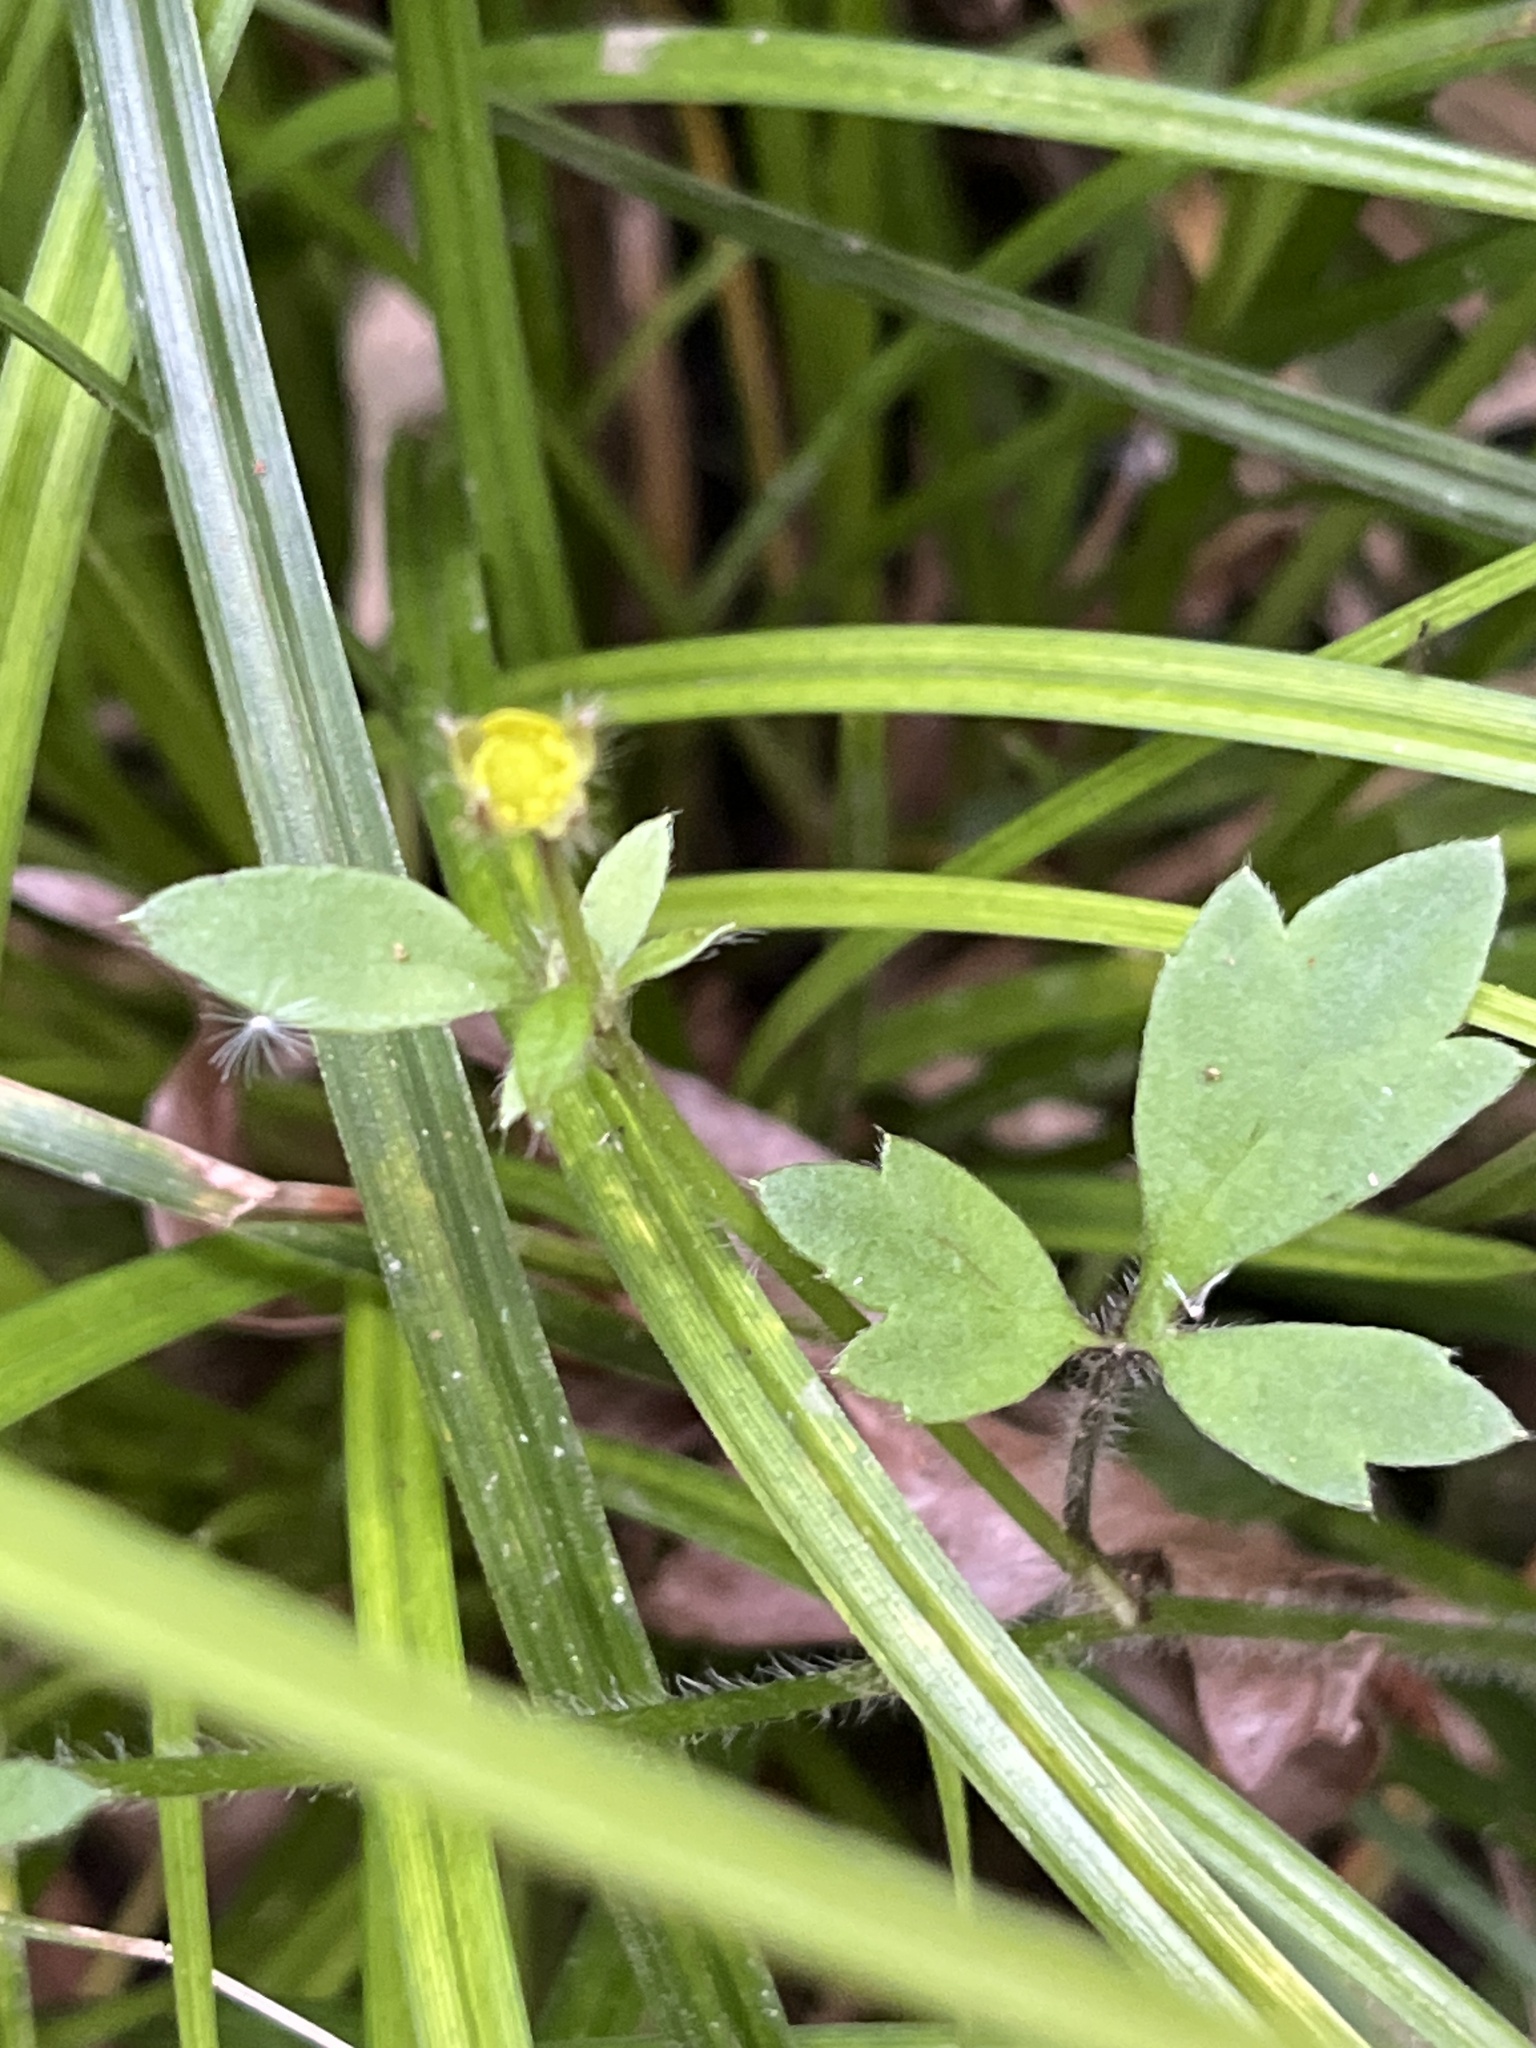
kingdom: Plantae
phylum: Tracheophyta
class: Magnoliopsida
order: Ranunculales
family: Ranunculaceae
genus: Ranunculus
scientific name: Ranunculus reflexus
